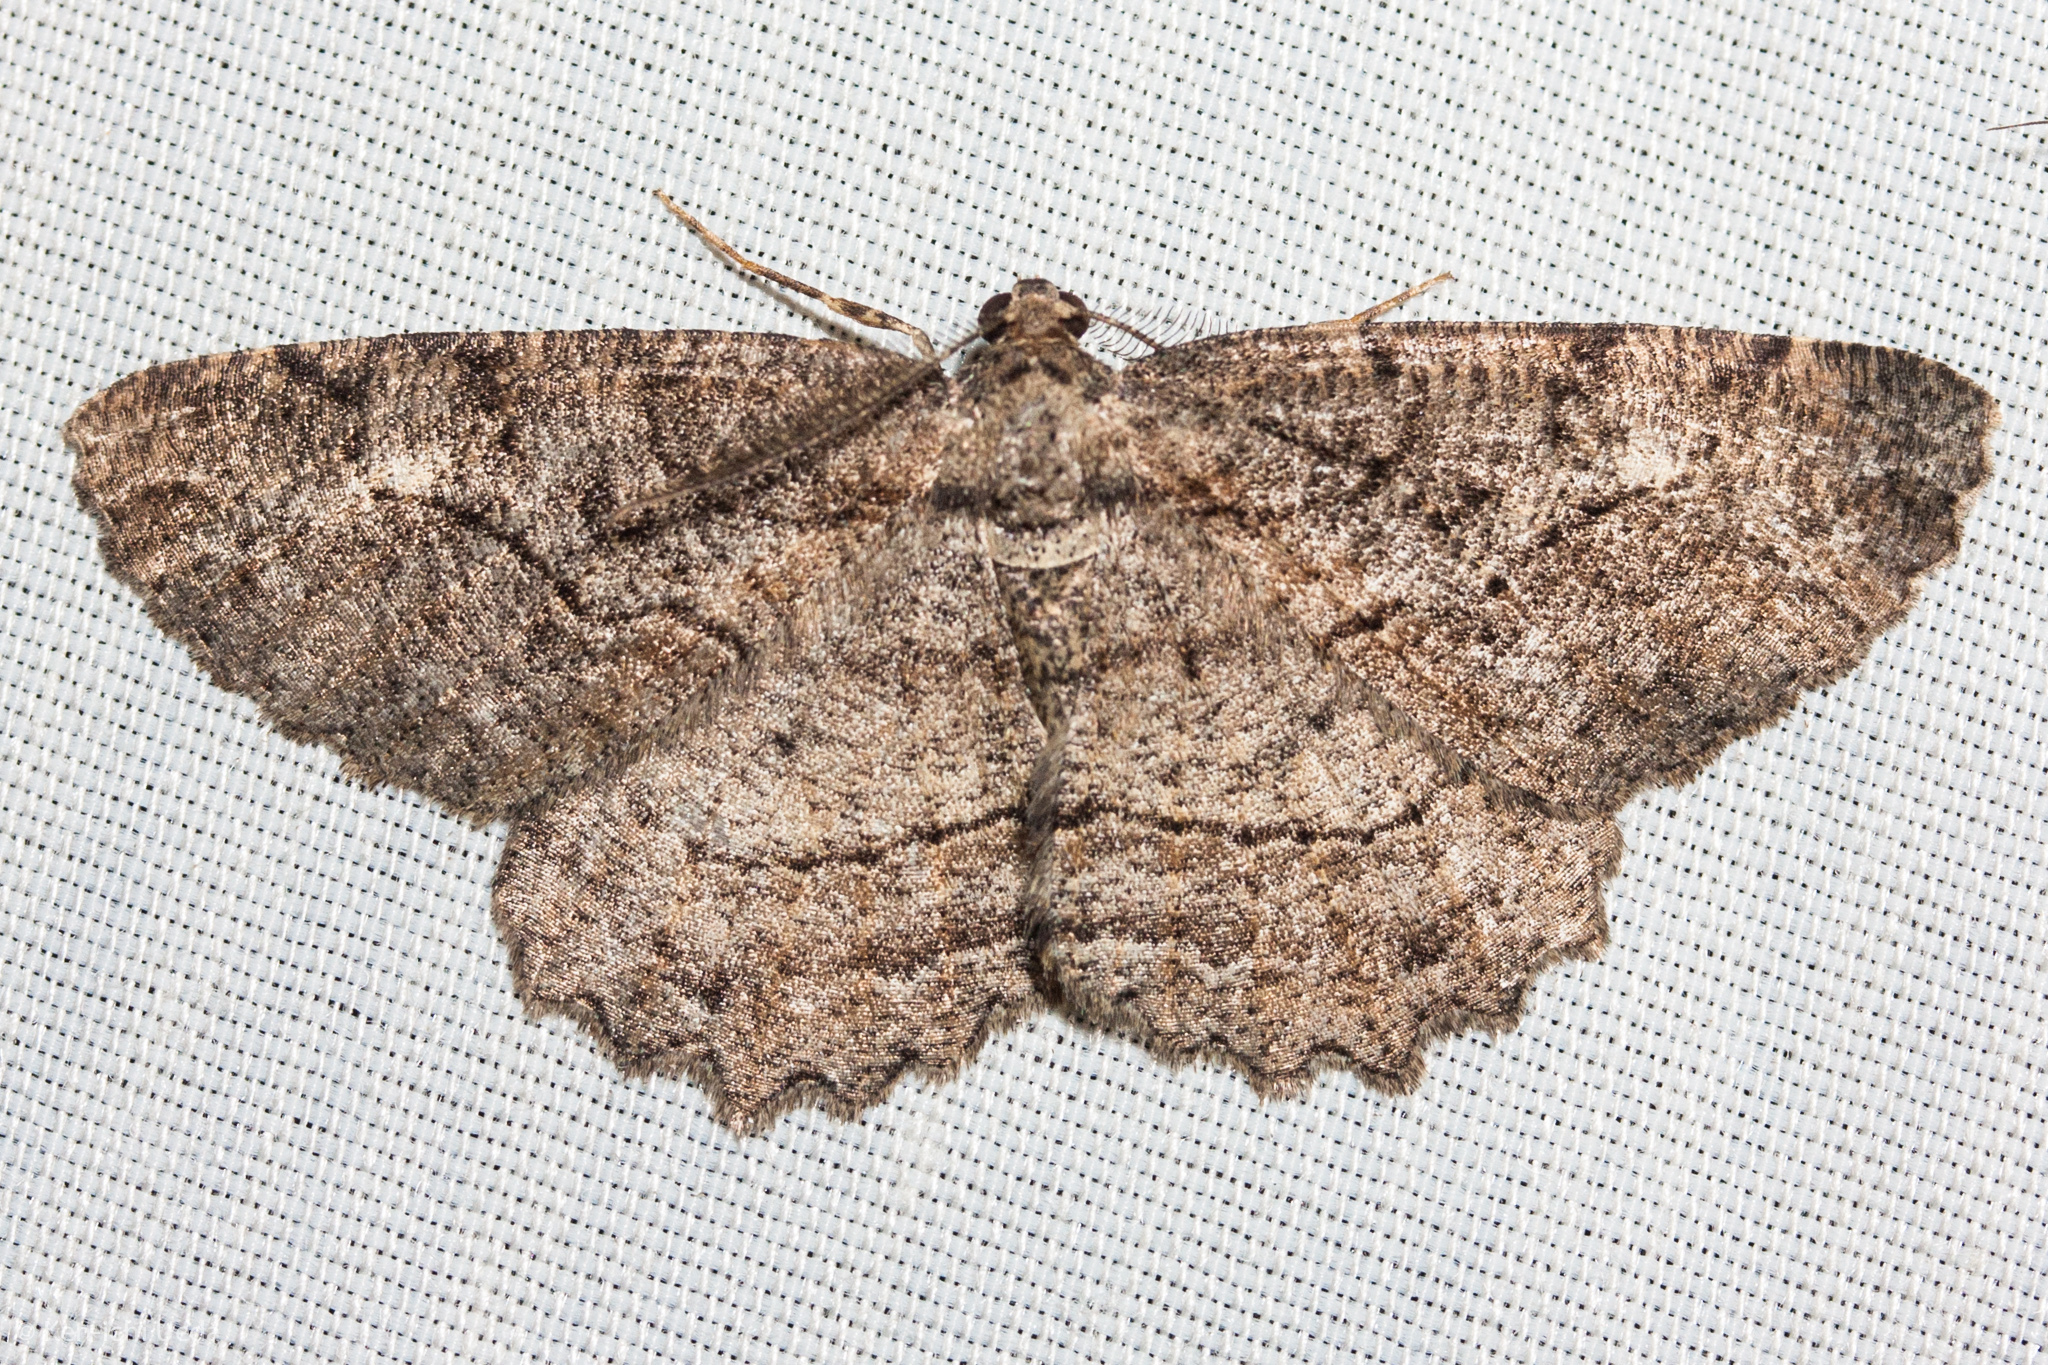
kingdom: Animalia
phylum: Arthropoda
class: Insecta
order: Lepidoptera
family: Geometridae
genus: Neoalcis
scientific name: Neoalcis californiaria
